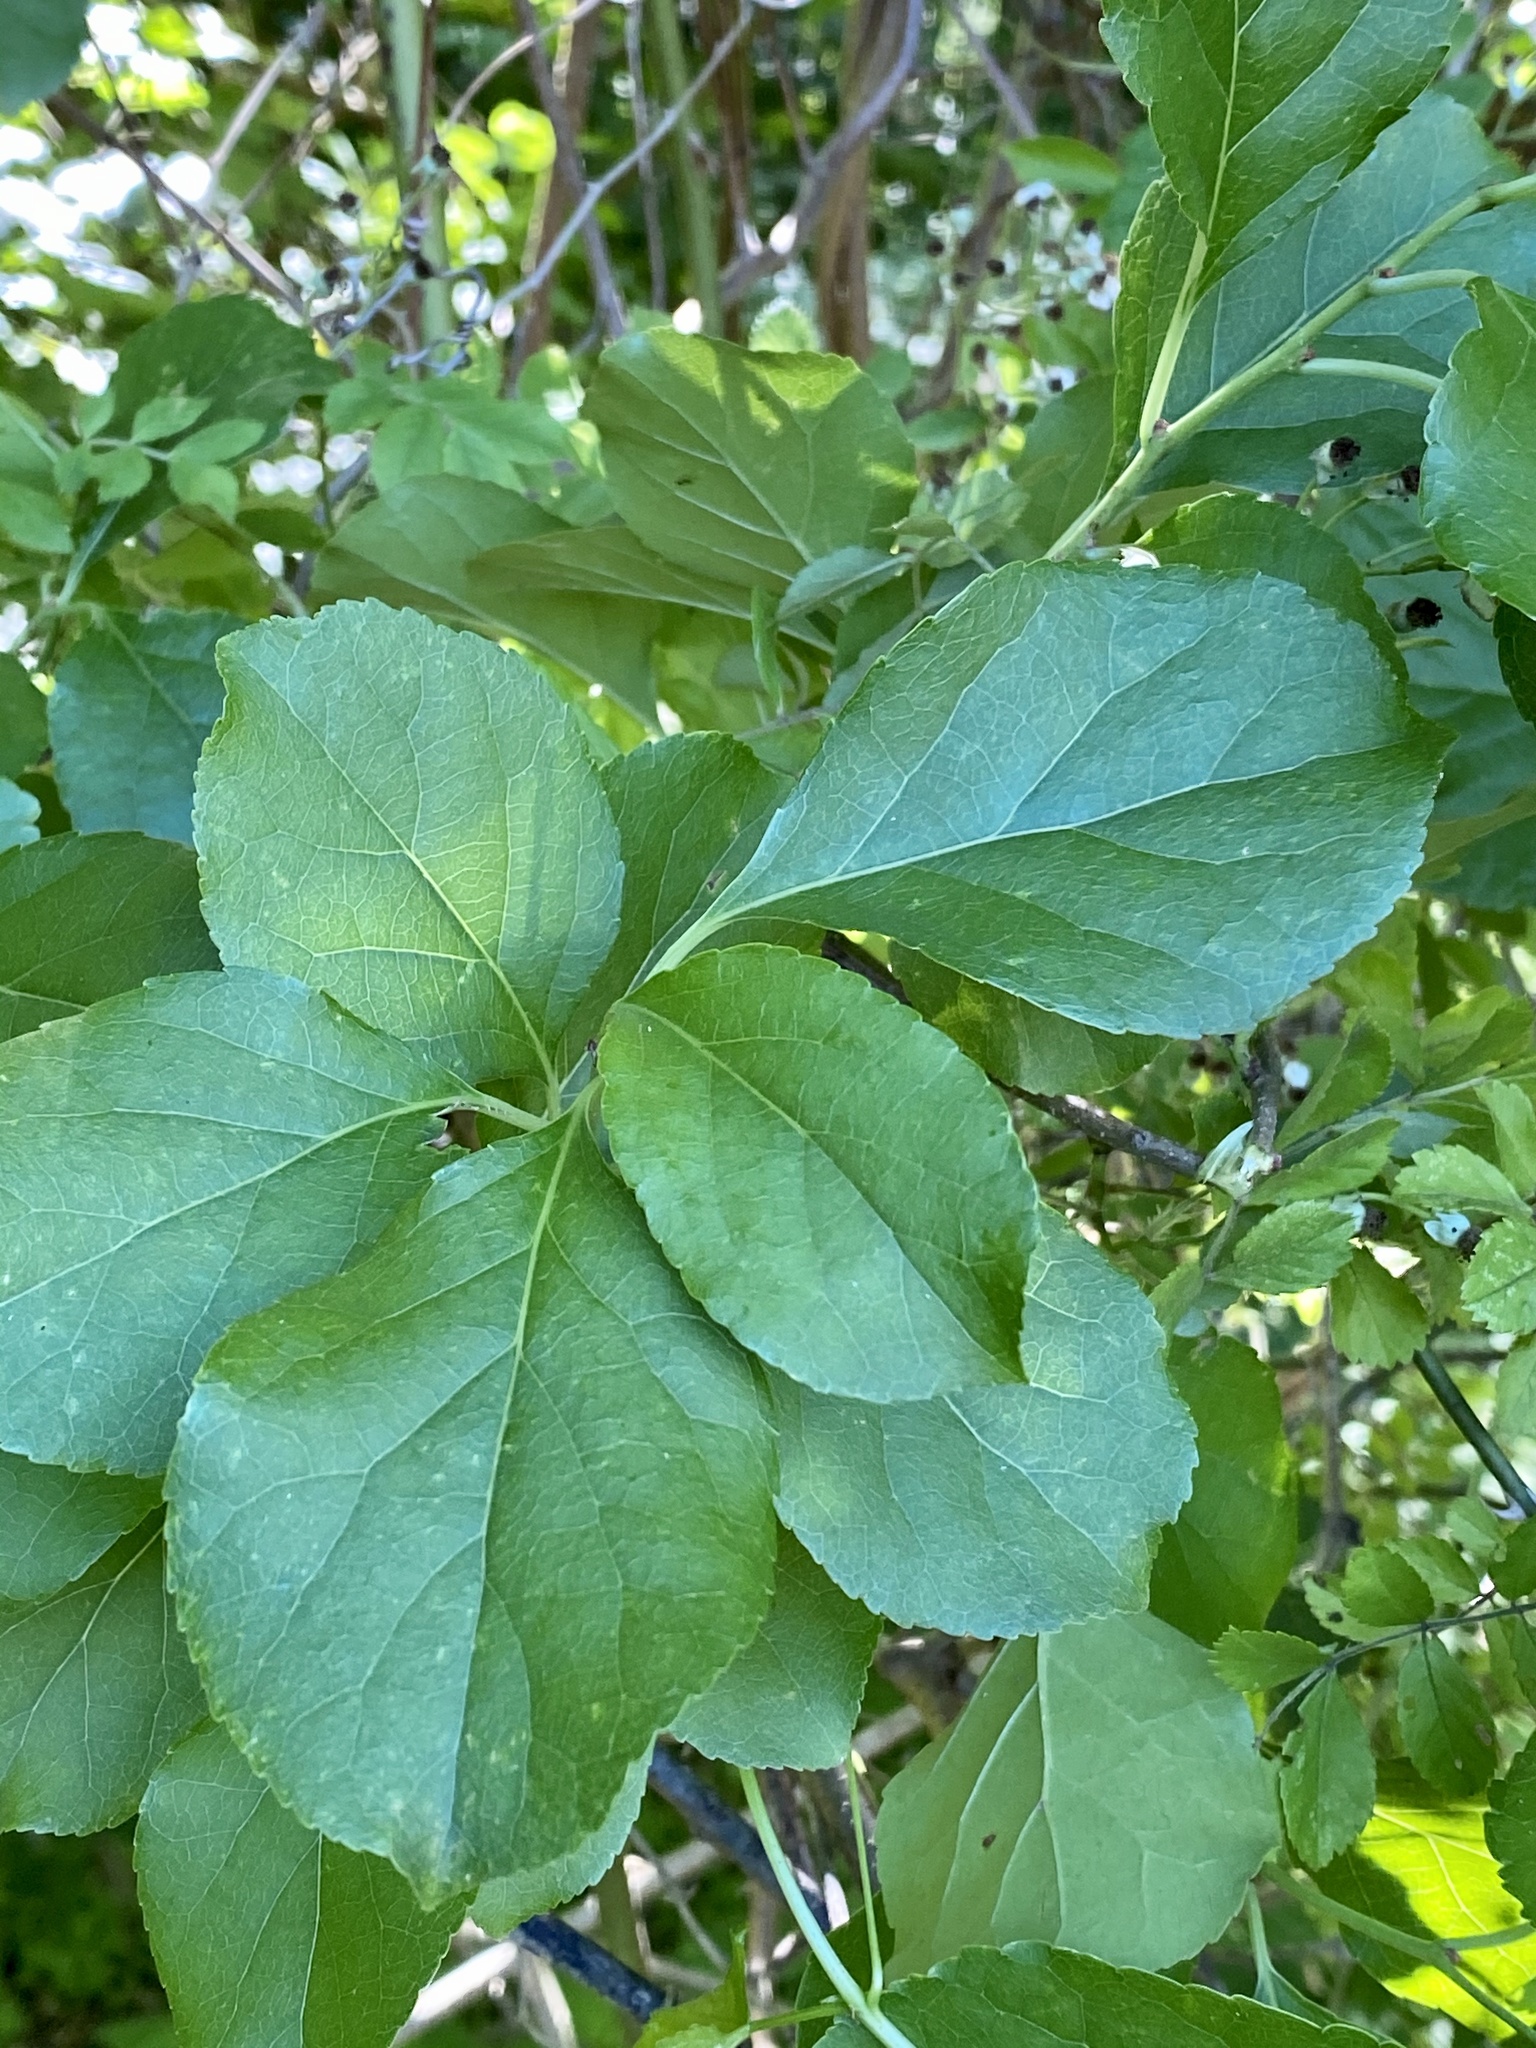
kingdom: Plantae
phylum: Tracheophyta
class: Magnoliopsida
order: Celastrales
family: Celastraceae
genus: Celastrus
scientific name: Celastrus orbiculatus
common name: Oriental bittersweet
